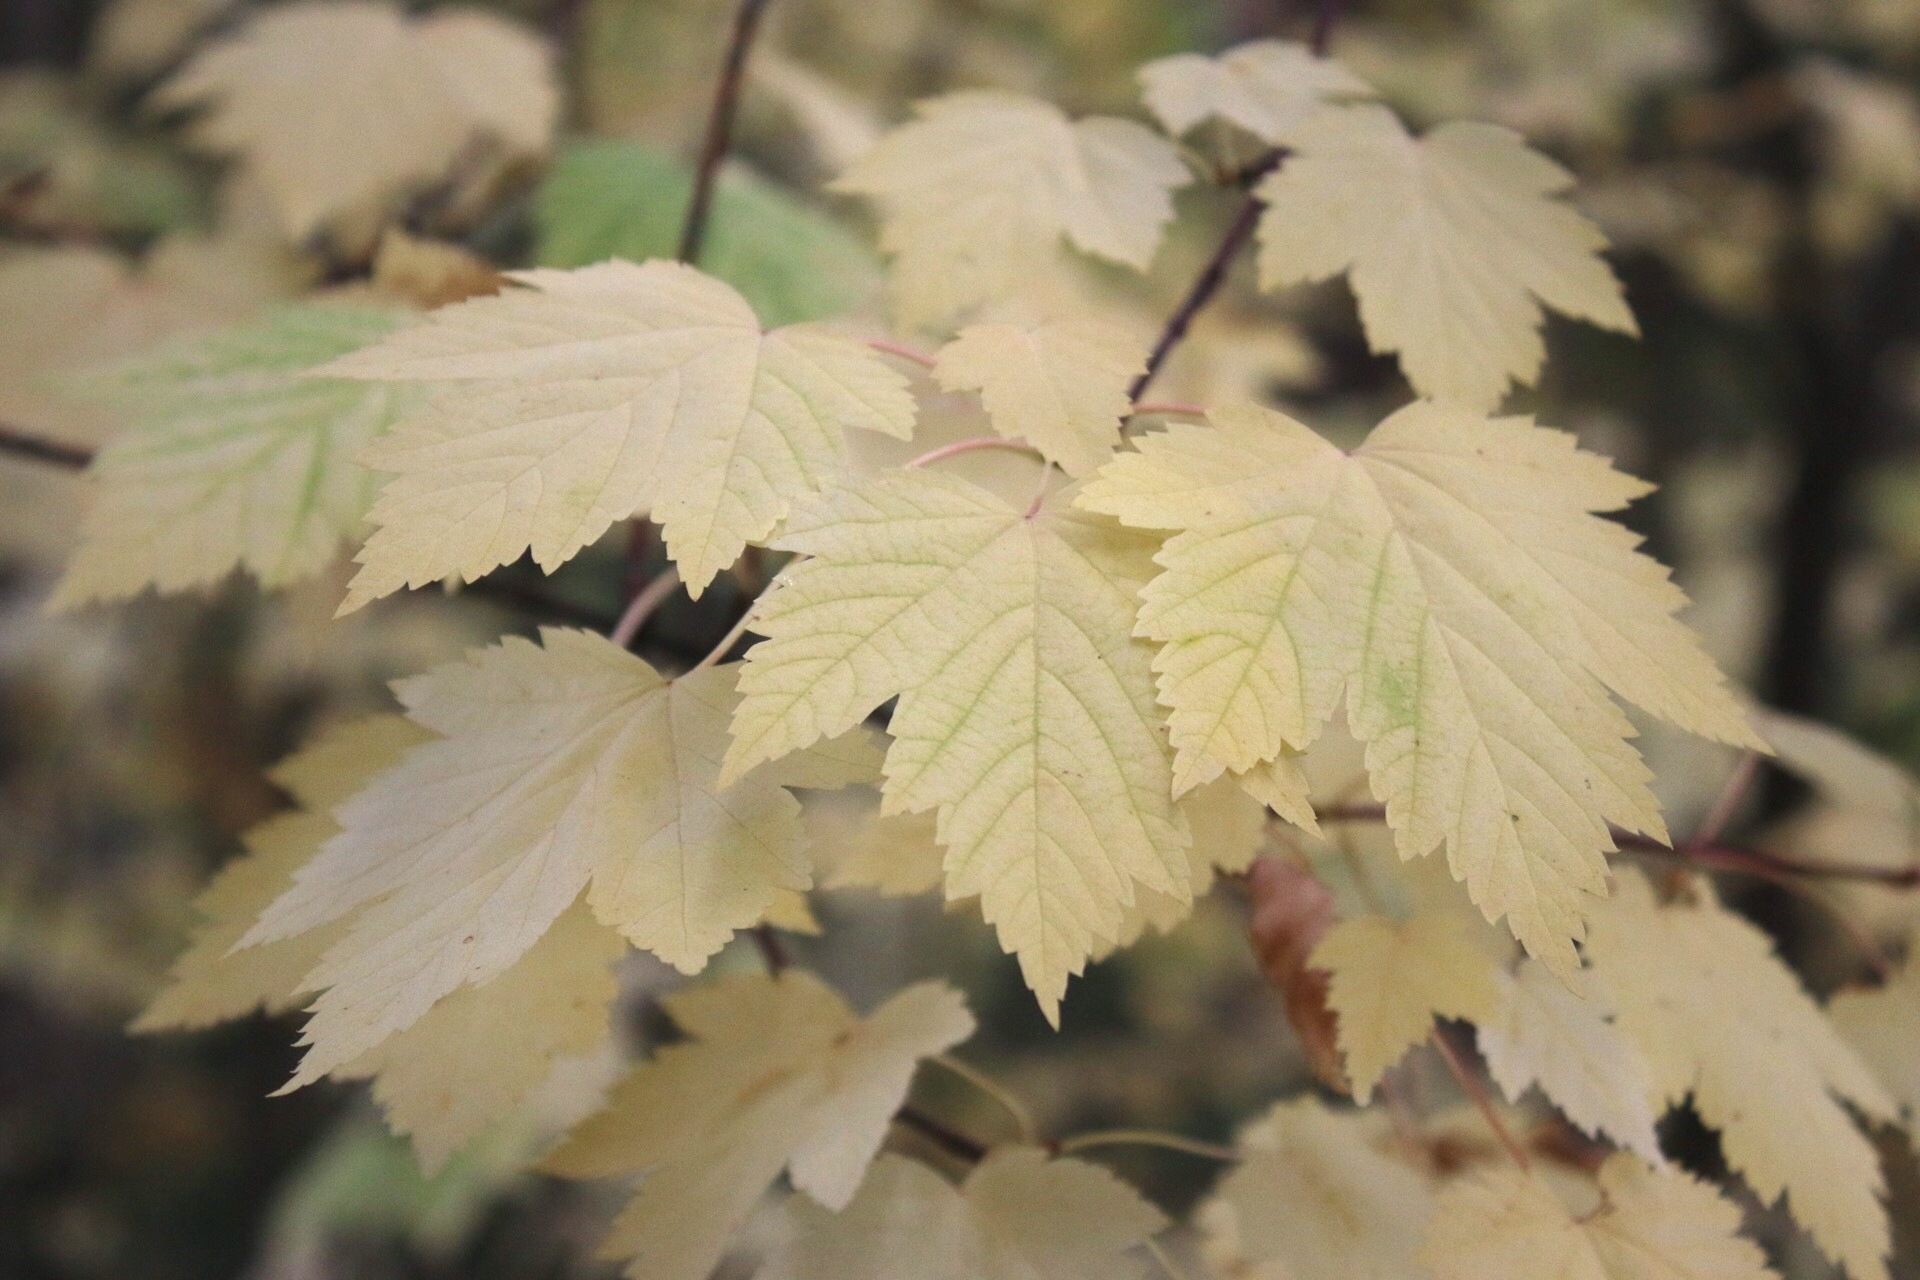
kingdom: Plantae
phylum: Tracheophyta
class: Magnoliopsida
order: Sapindales
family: Sapindaceae
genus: Acer
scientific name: Acer glabrum
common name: Rocky mountain maple
